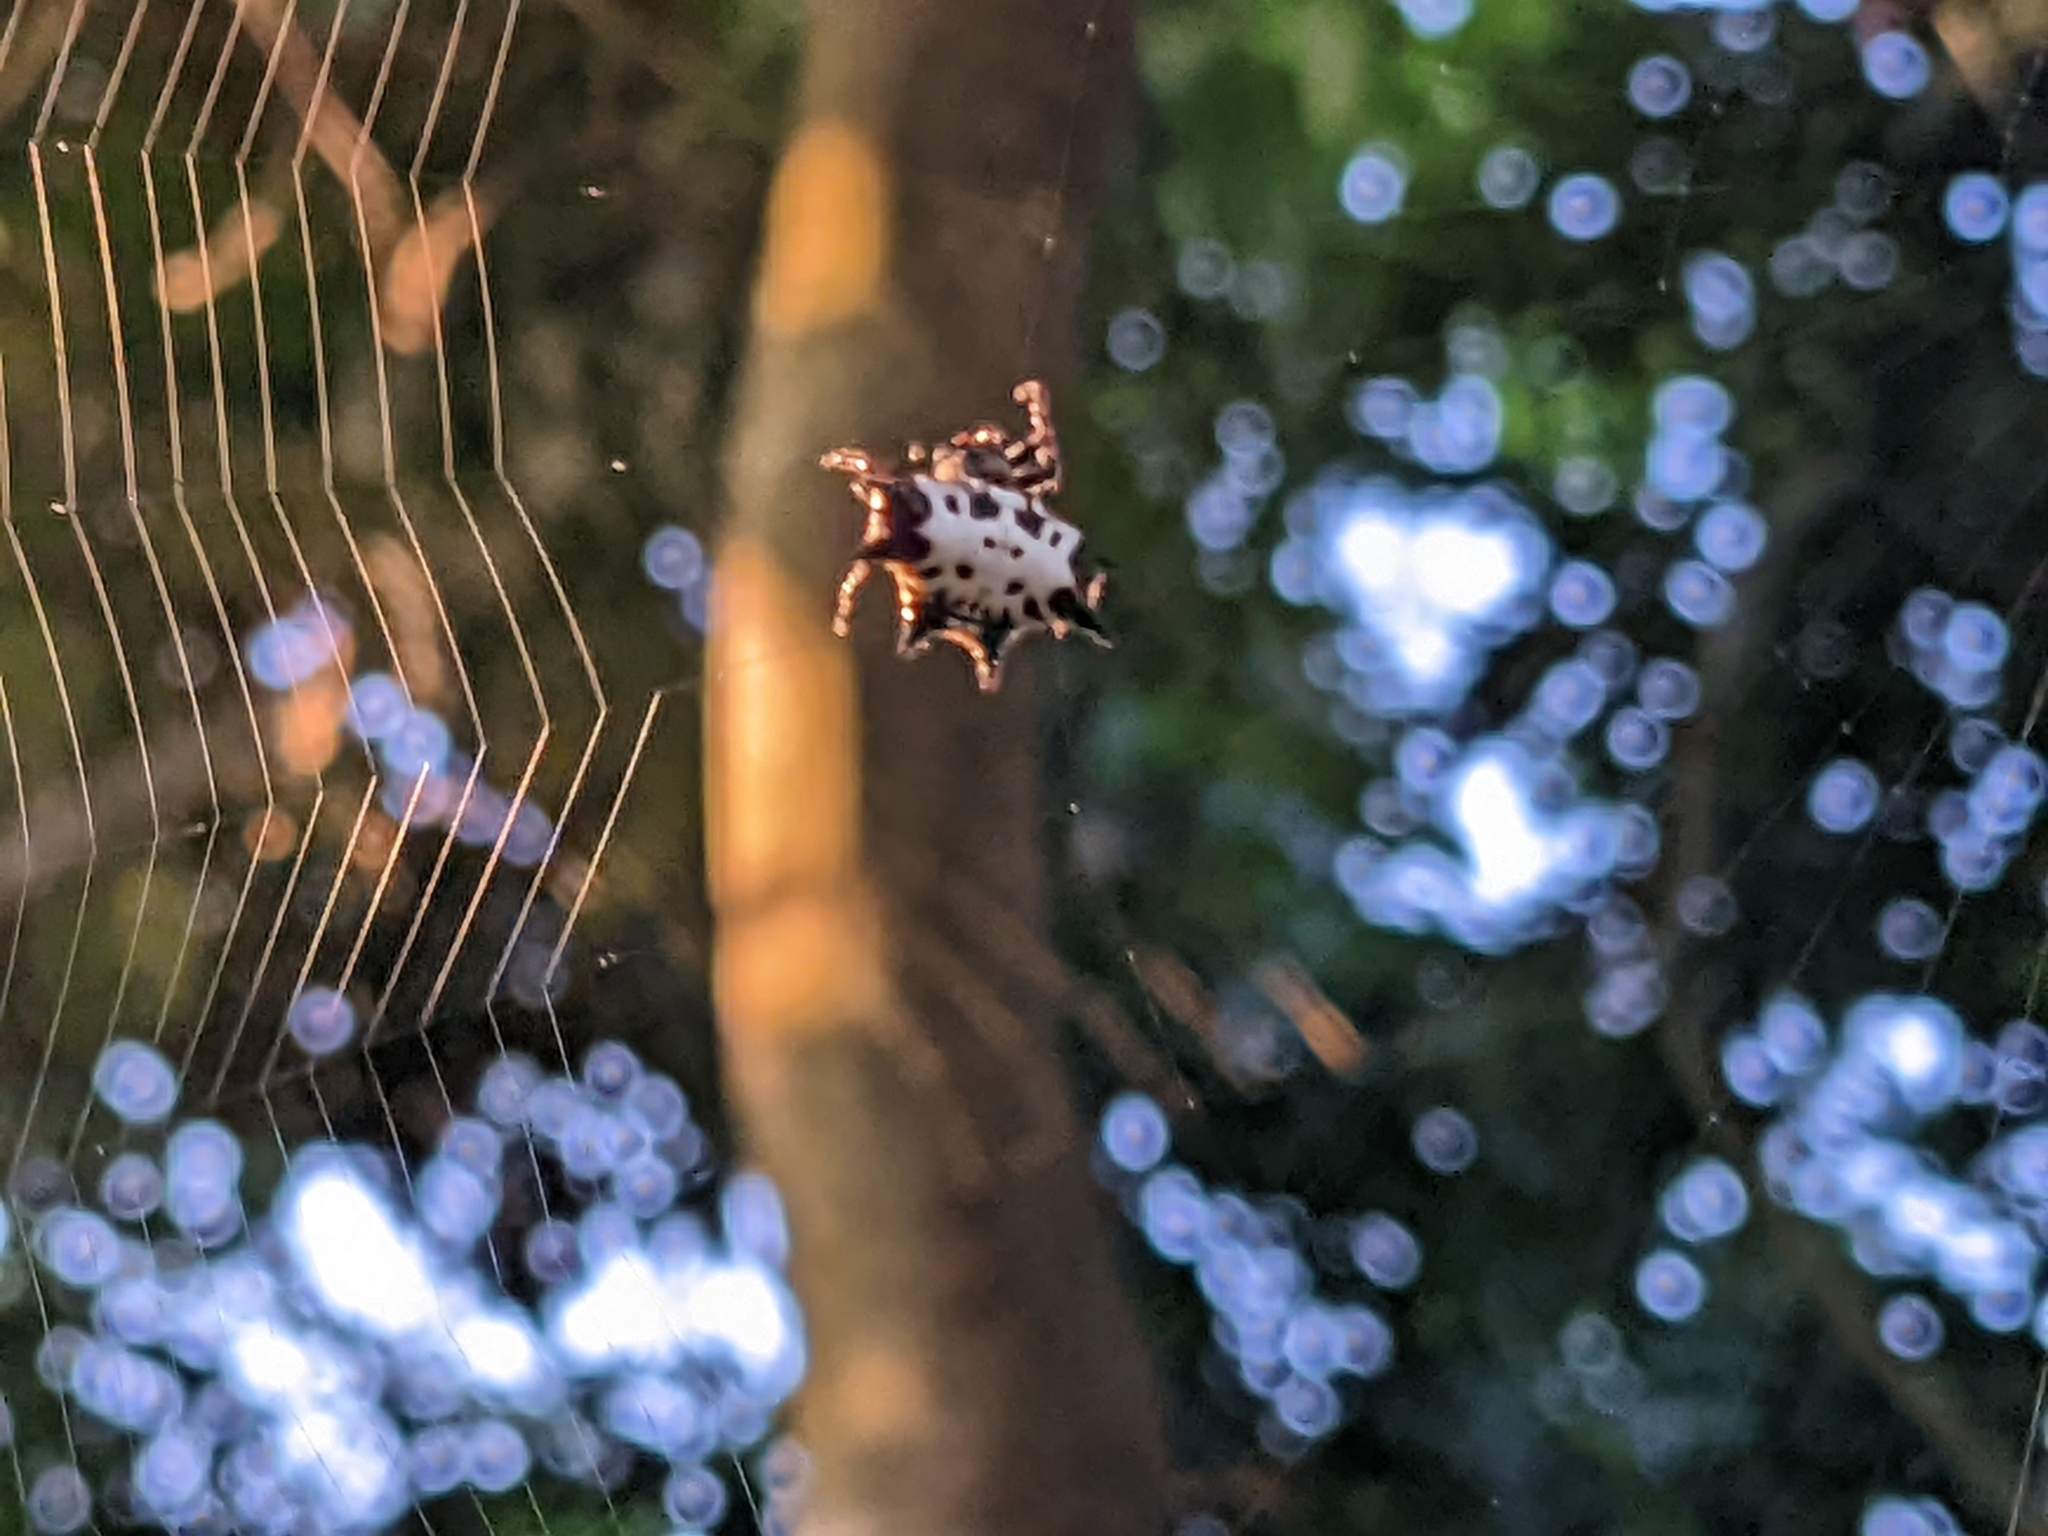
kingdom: Animalia
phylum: Arthropoda
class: Arachnida
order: Araneae
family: Araneidae
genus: Gasteracantha
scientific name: Gasteracantha kuhli
